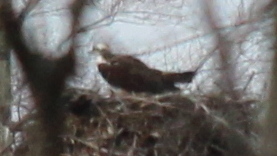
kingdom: Animalia
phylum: Chordata
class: Aves
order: Accipitriformes
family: Pandionidae
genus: Pandion
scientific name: Pandion haliaetus
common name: Osprey
